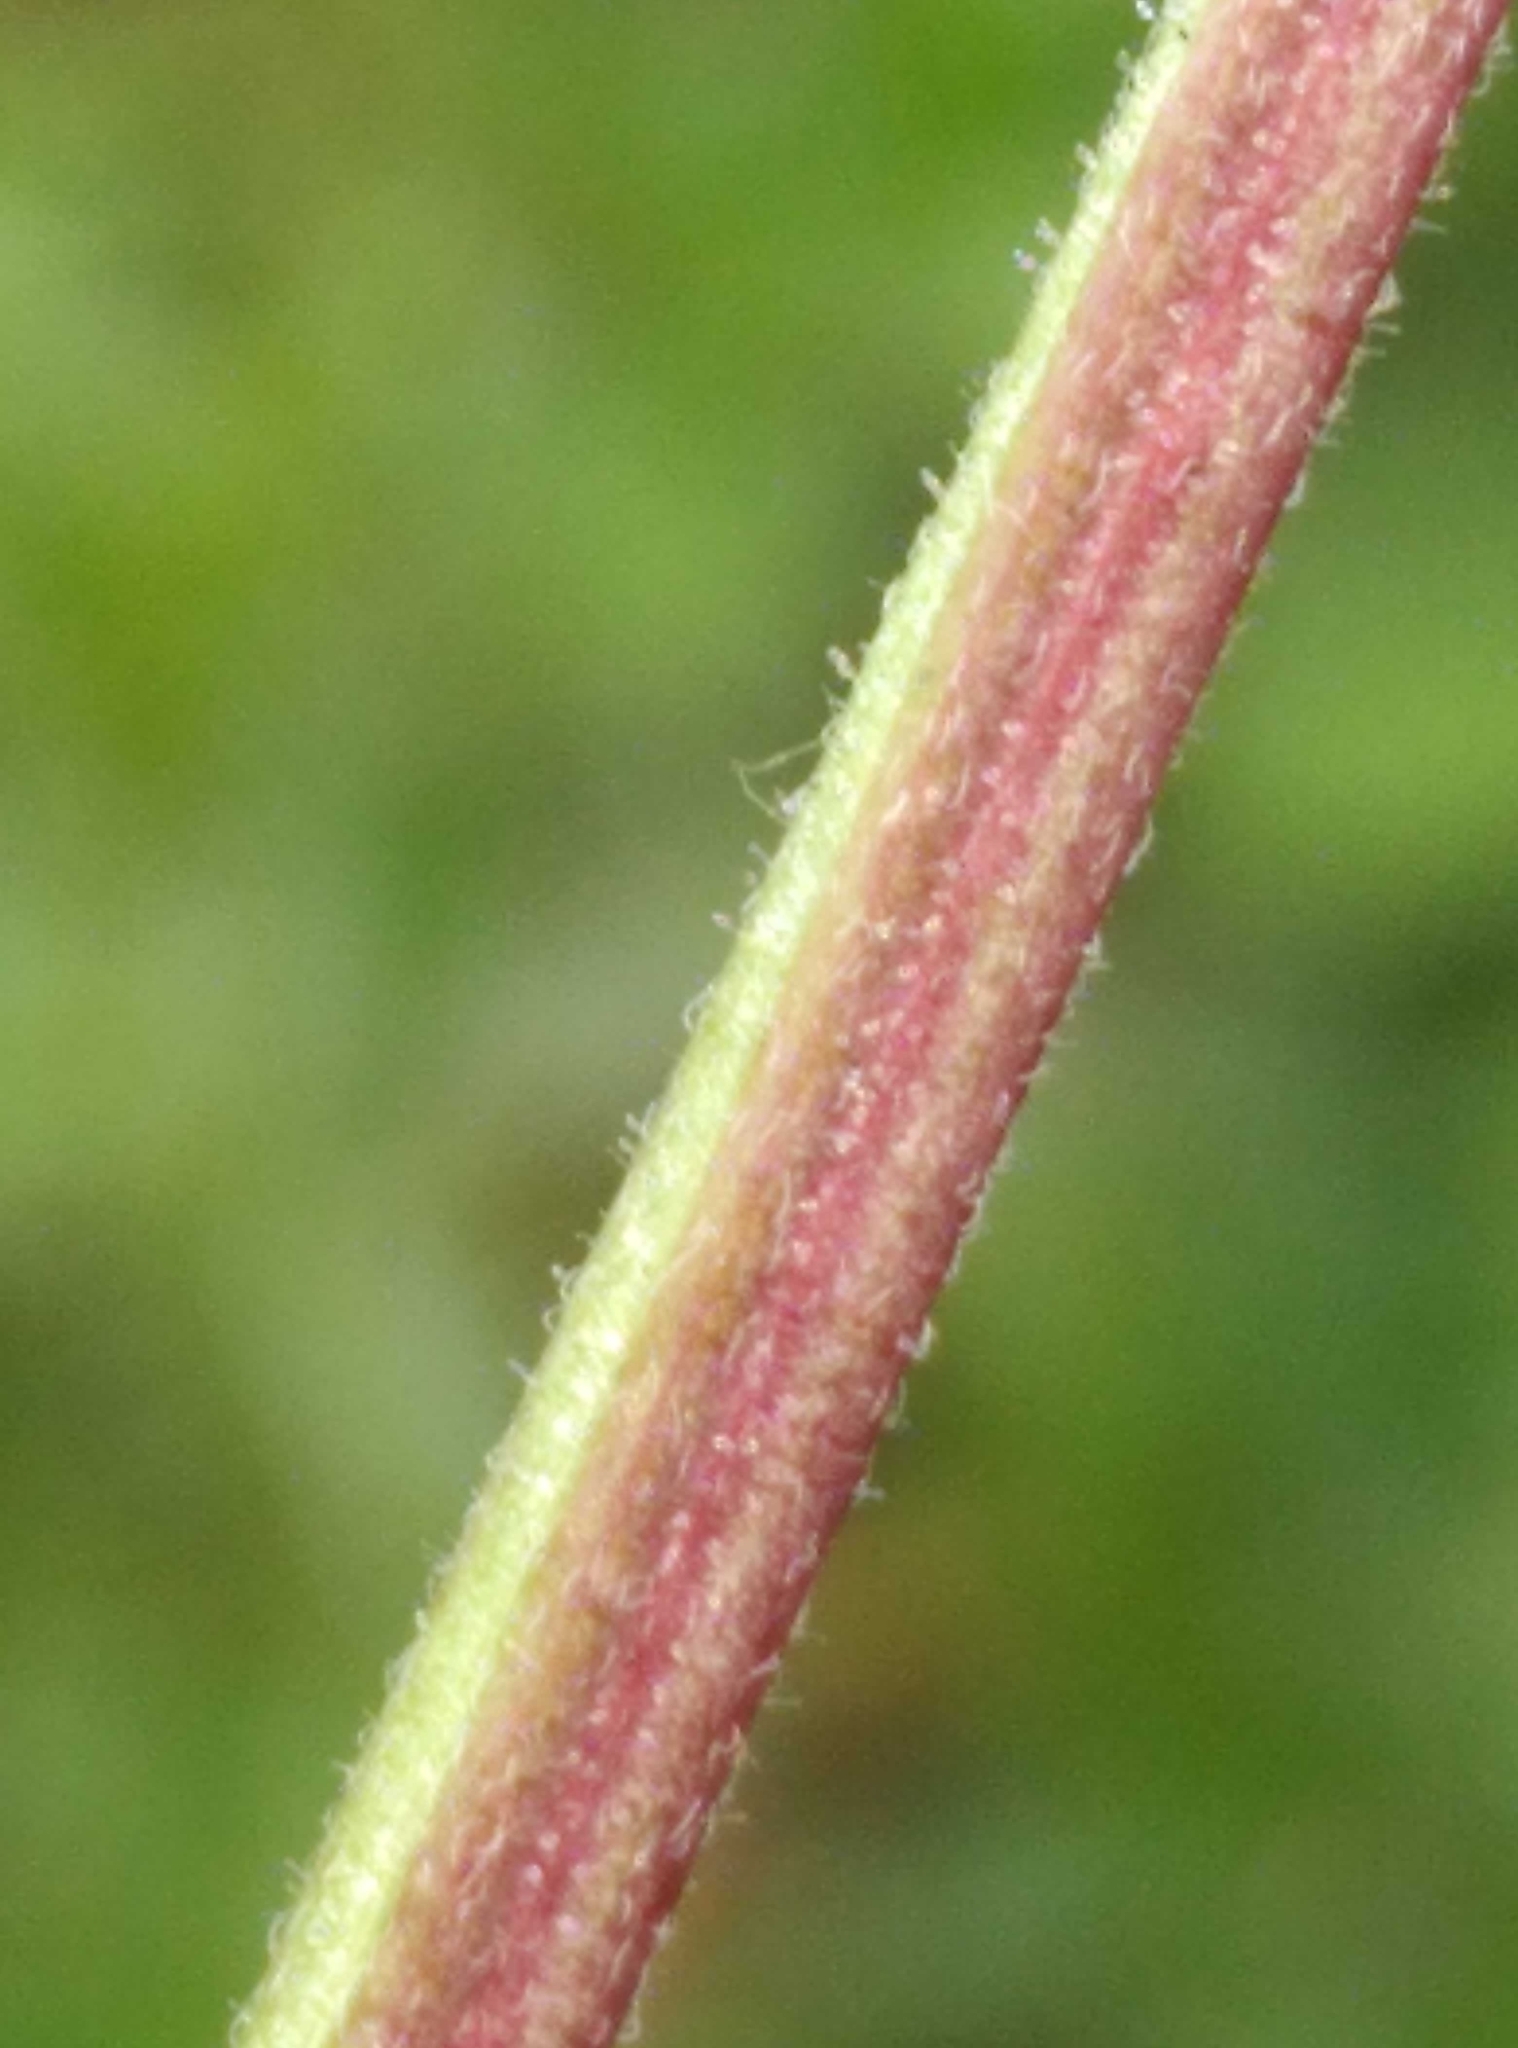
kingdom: Plantae
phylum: Tracheophyta
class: Magnoliopsida
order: Myrtales
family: Onagraceae
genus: Epilobium
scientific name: Epilobium ciliatum
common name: American willowherb
